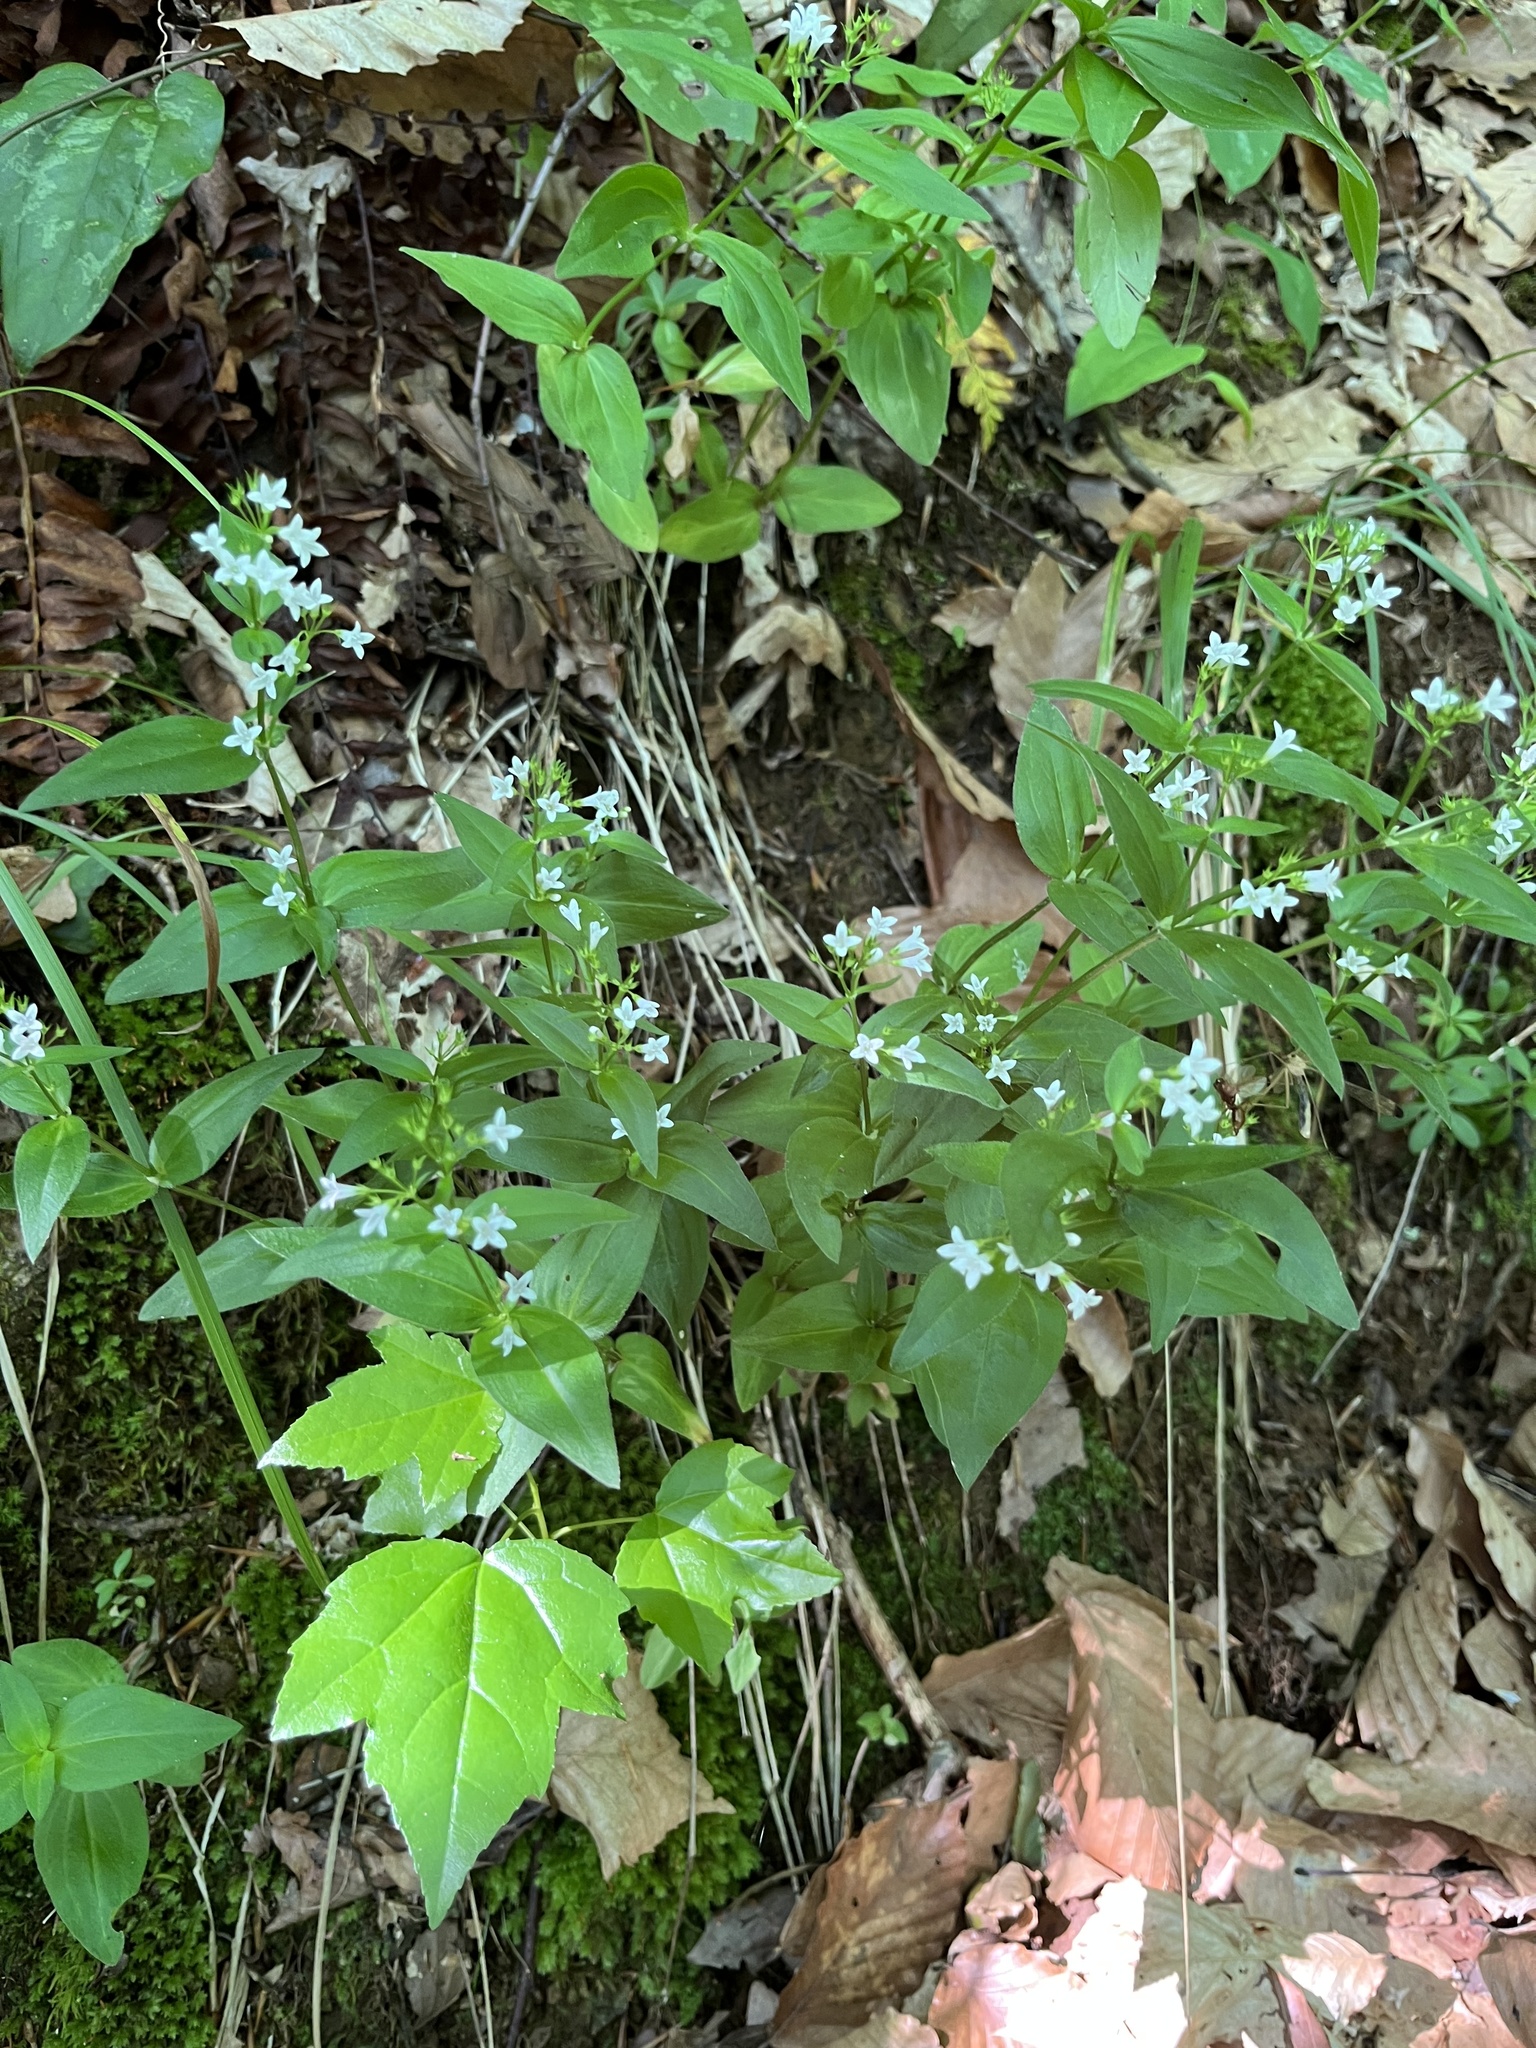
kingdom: Plantae
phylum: Tracheophyta
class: Magnoliopsida
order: Gentianales
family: Rubiaceae
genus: Houstonia
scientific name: Houstonia purpurea
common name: Summer bluet
